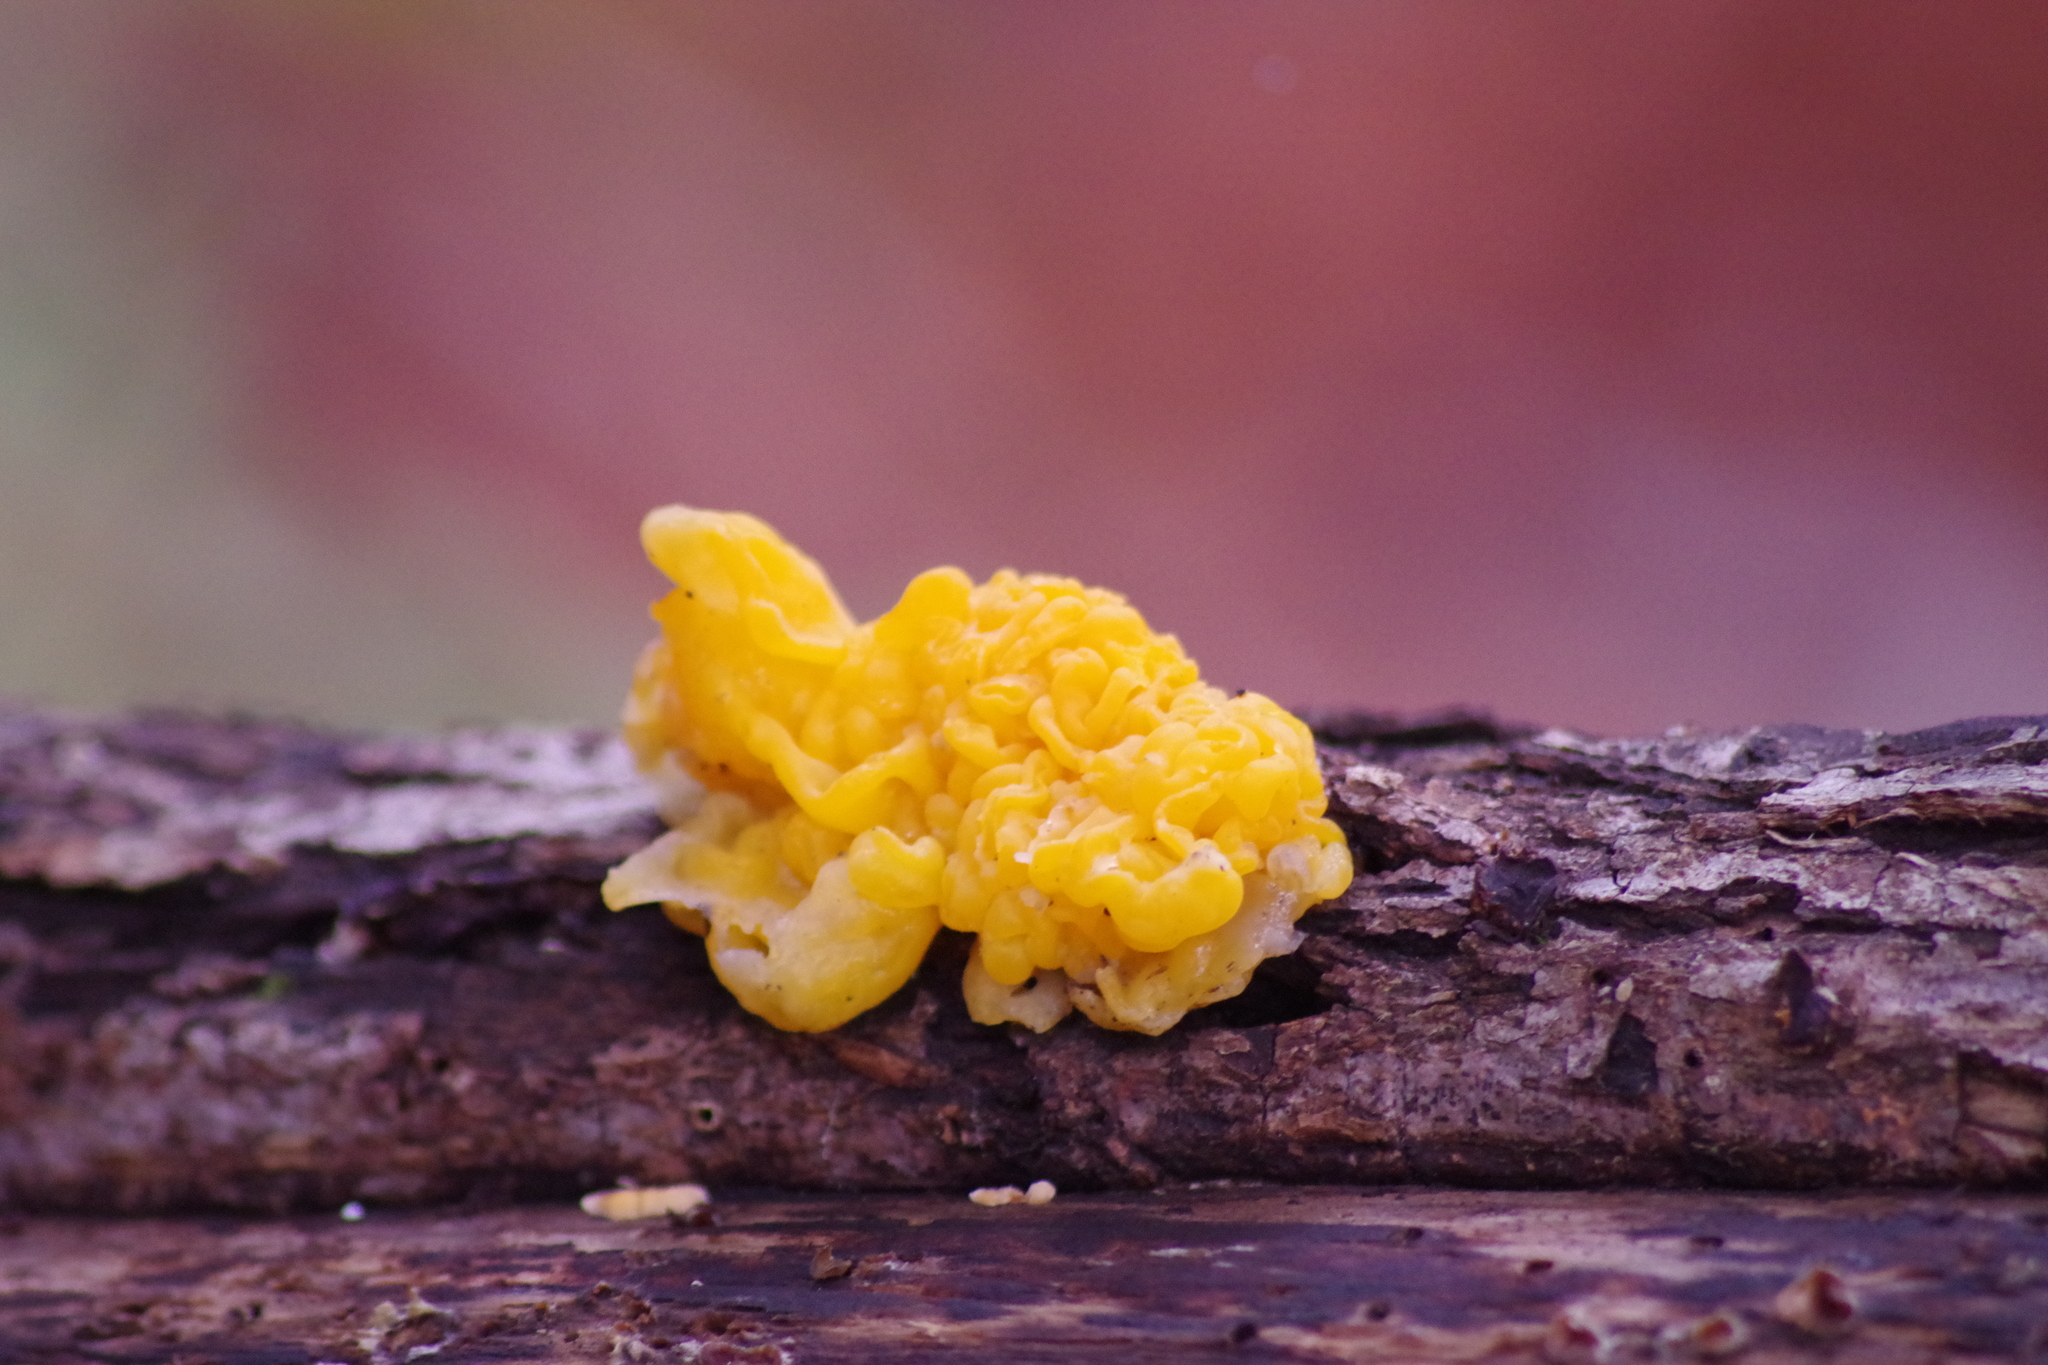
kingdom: Fungi
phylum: Basidiomycota
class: Tremellomycetes
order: Tremellales
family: Naemateliaceae
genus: Naematelia
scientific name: Naematelia aurantia
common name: Golden ear
